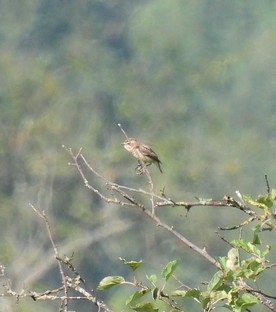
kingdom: Animalia
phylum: Chordata
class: Aves
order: Passeriformes
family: Muscicapidae
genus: Saxicola
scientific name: Saxicola rubetra
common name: Whinchat
